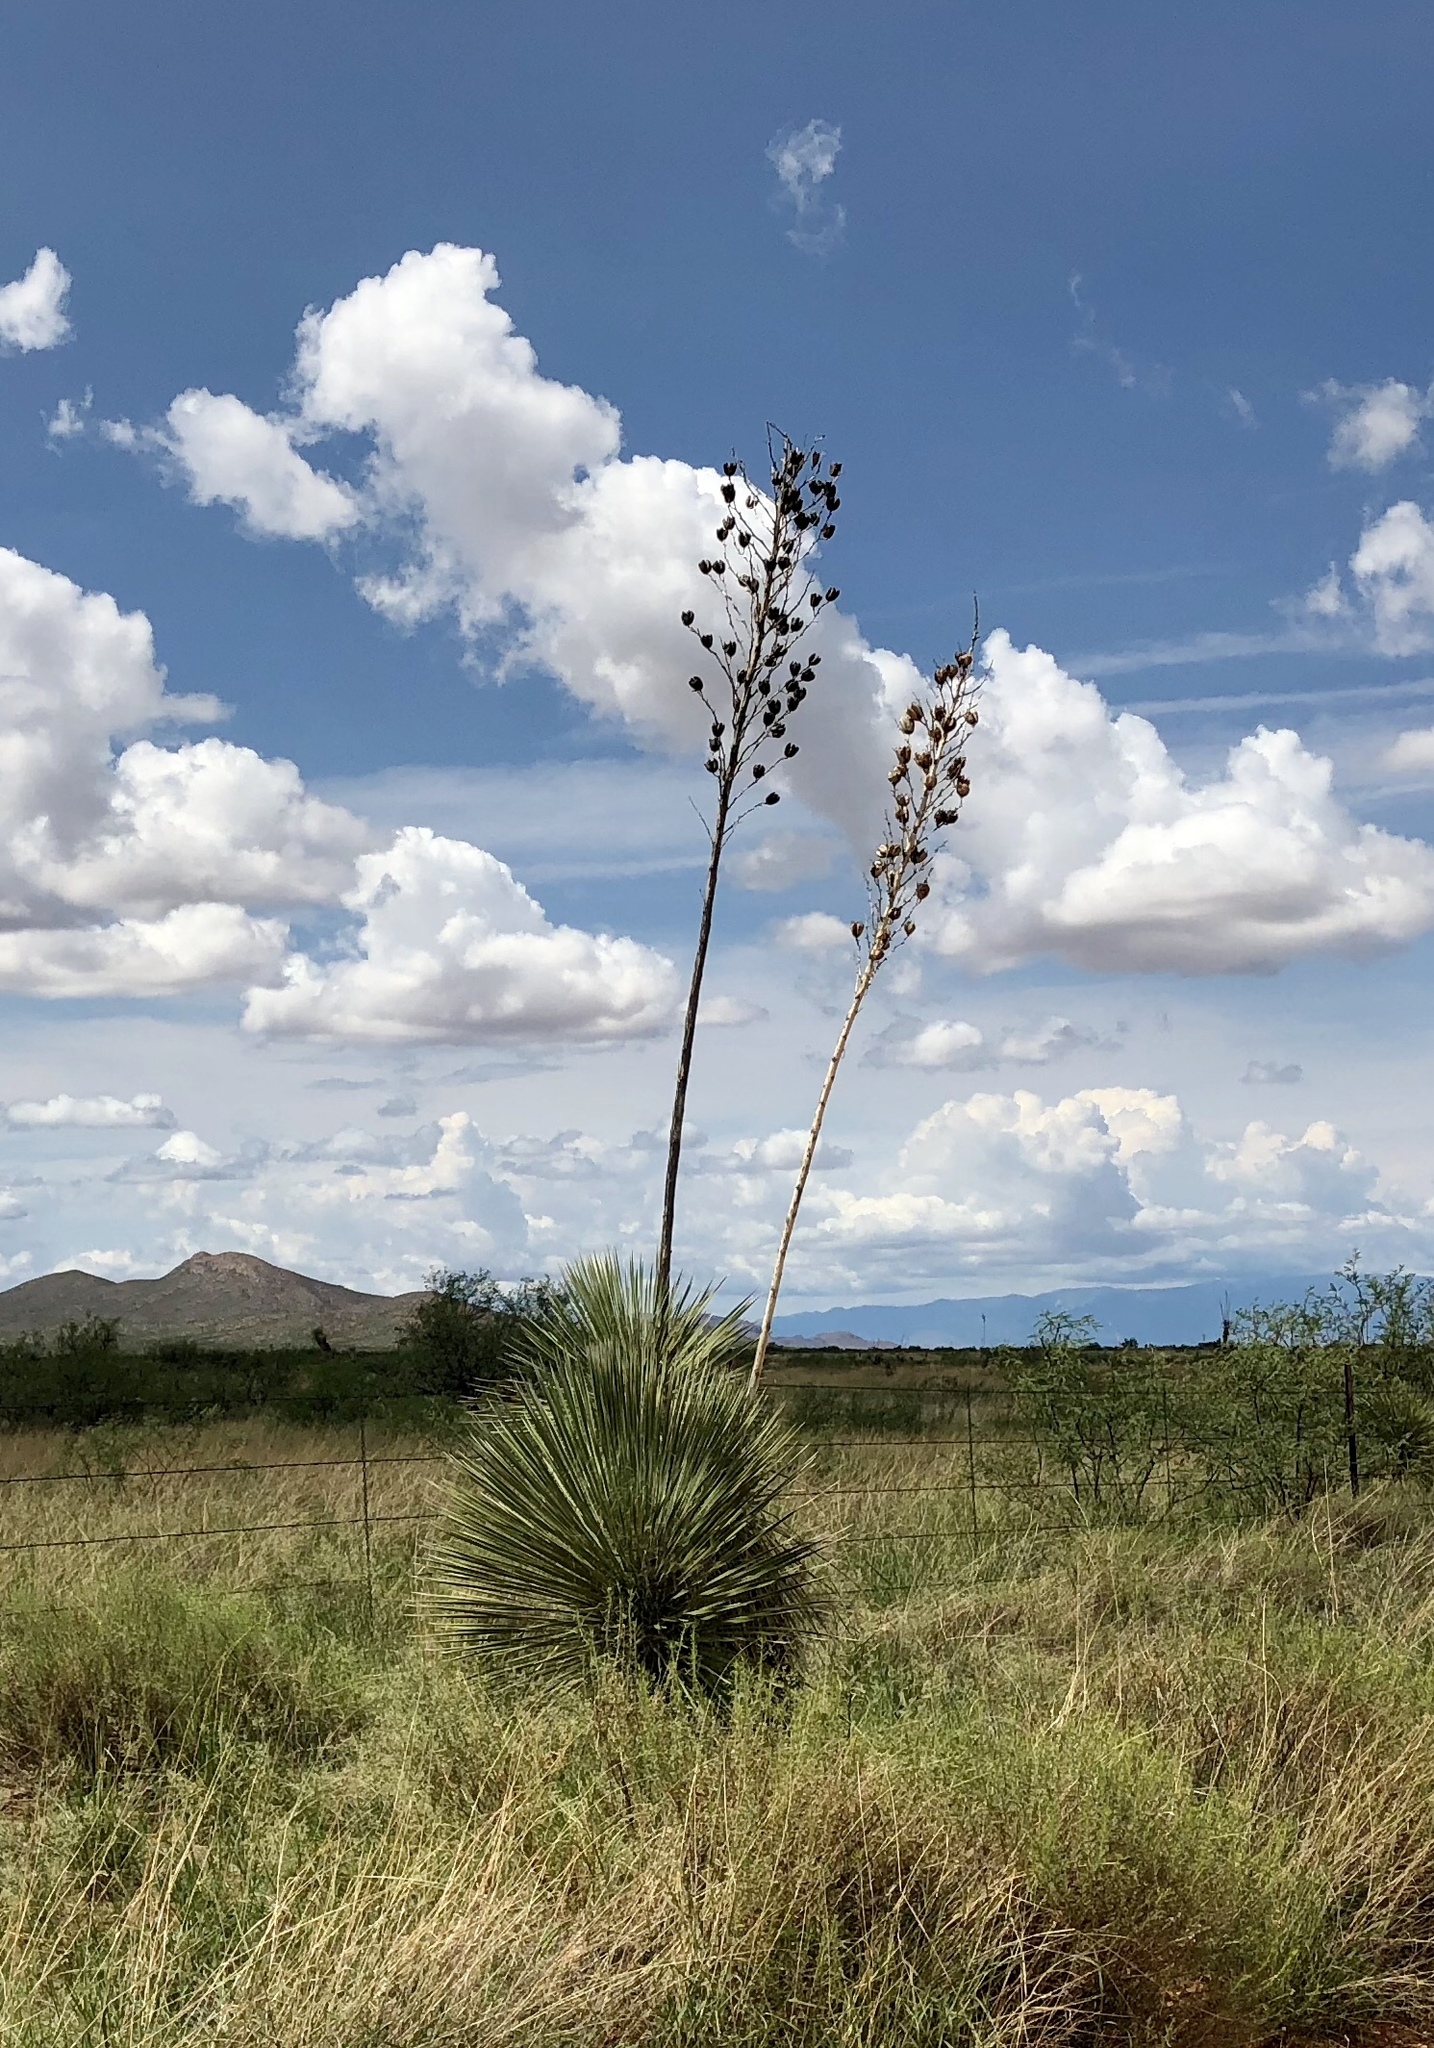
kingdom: Plantae
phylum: Tracheophyta
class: Liliopsida
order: Asparagales
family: Asparagaceae
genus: Yucca
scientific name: Yucca elata
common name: Palmella
